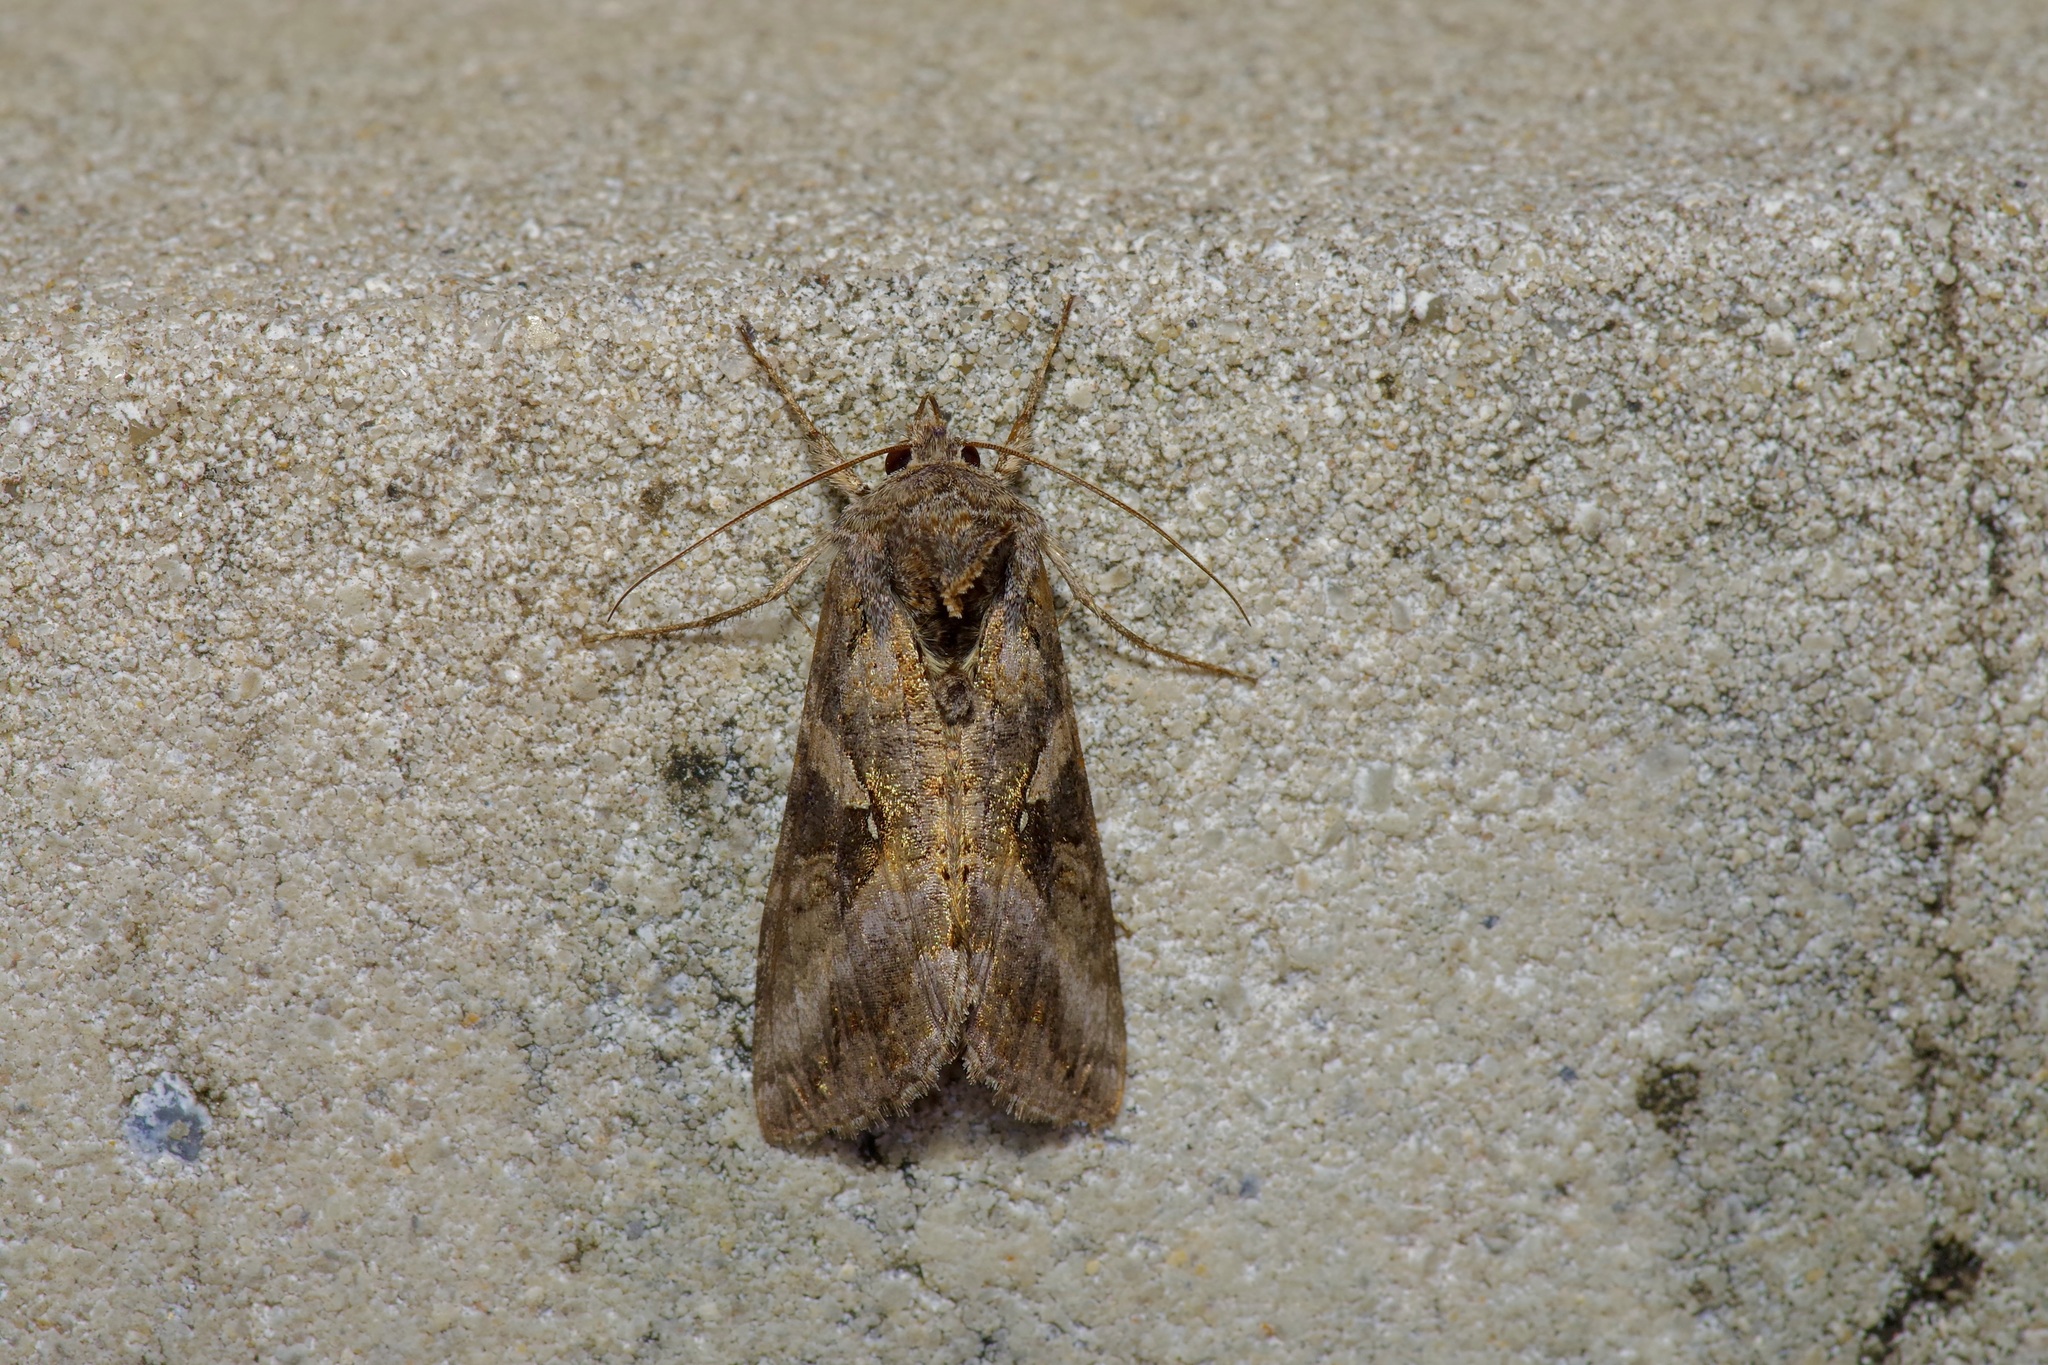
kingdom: Animalia
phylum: Arthropoda
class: Insecta
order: Lepidoptera
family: Noctuidae
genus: Rachiplusia
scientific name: Rachiplusia ou
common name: Gray looper moth
